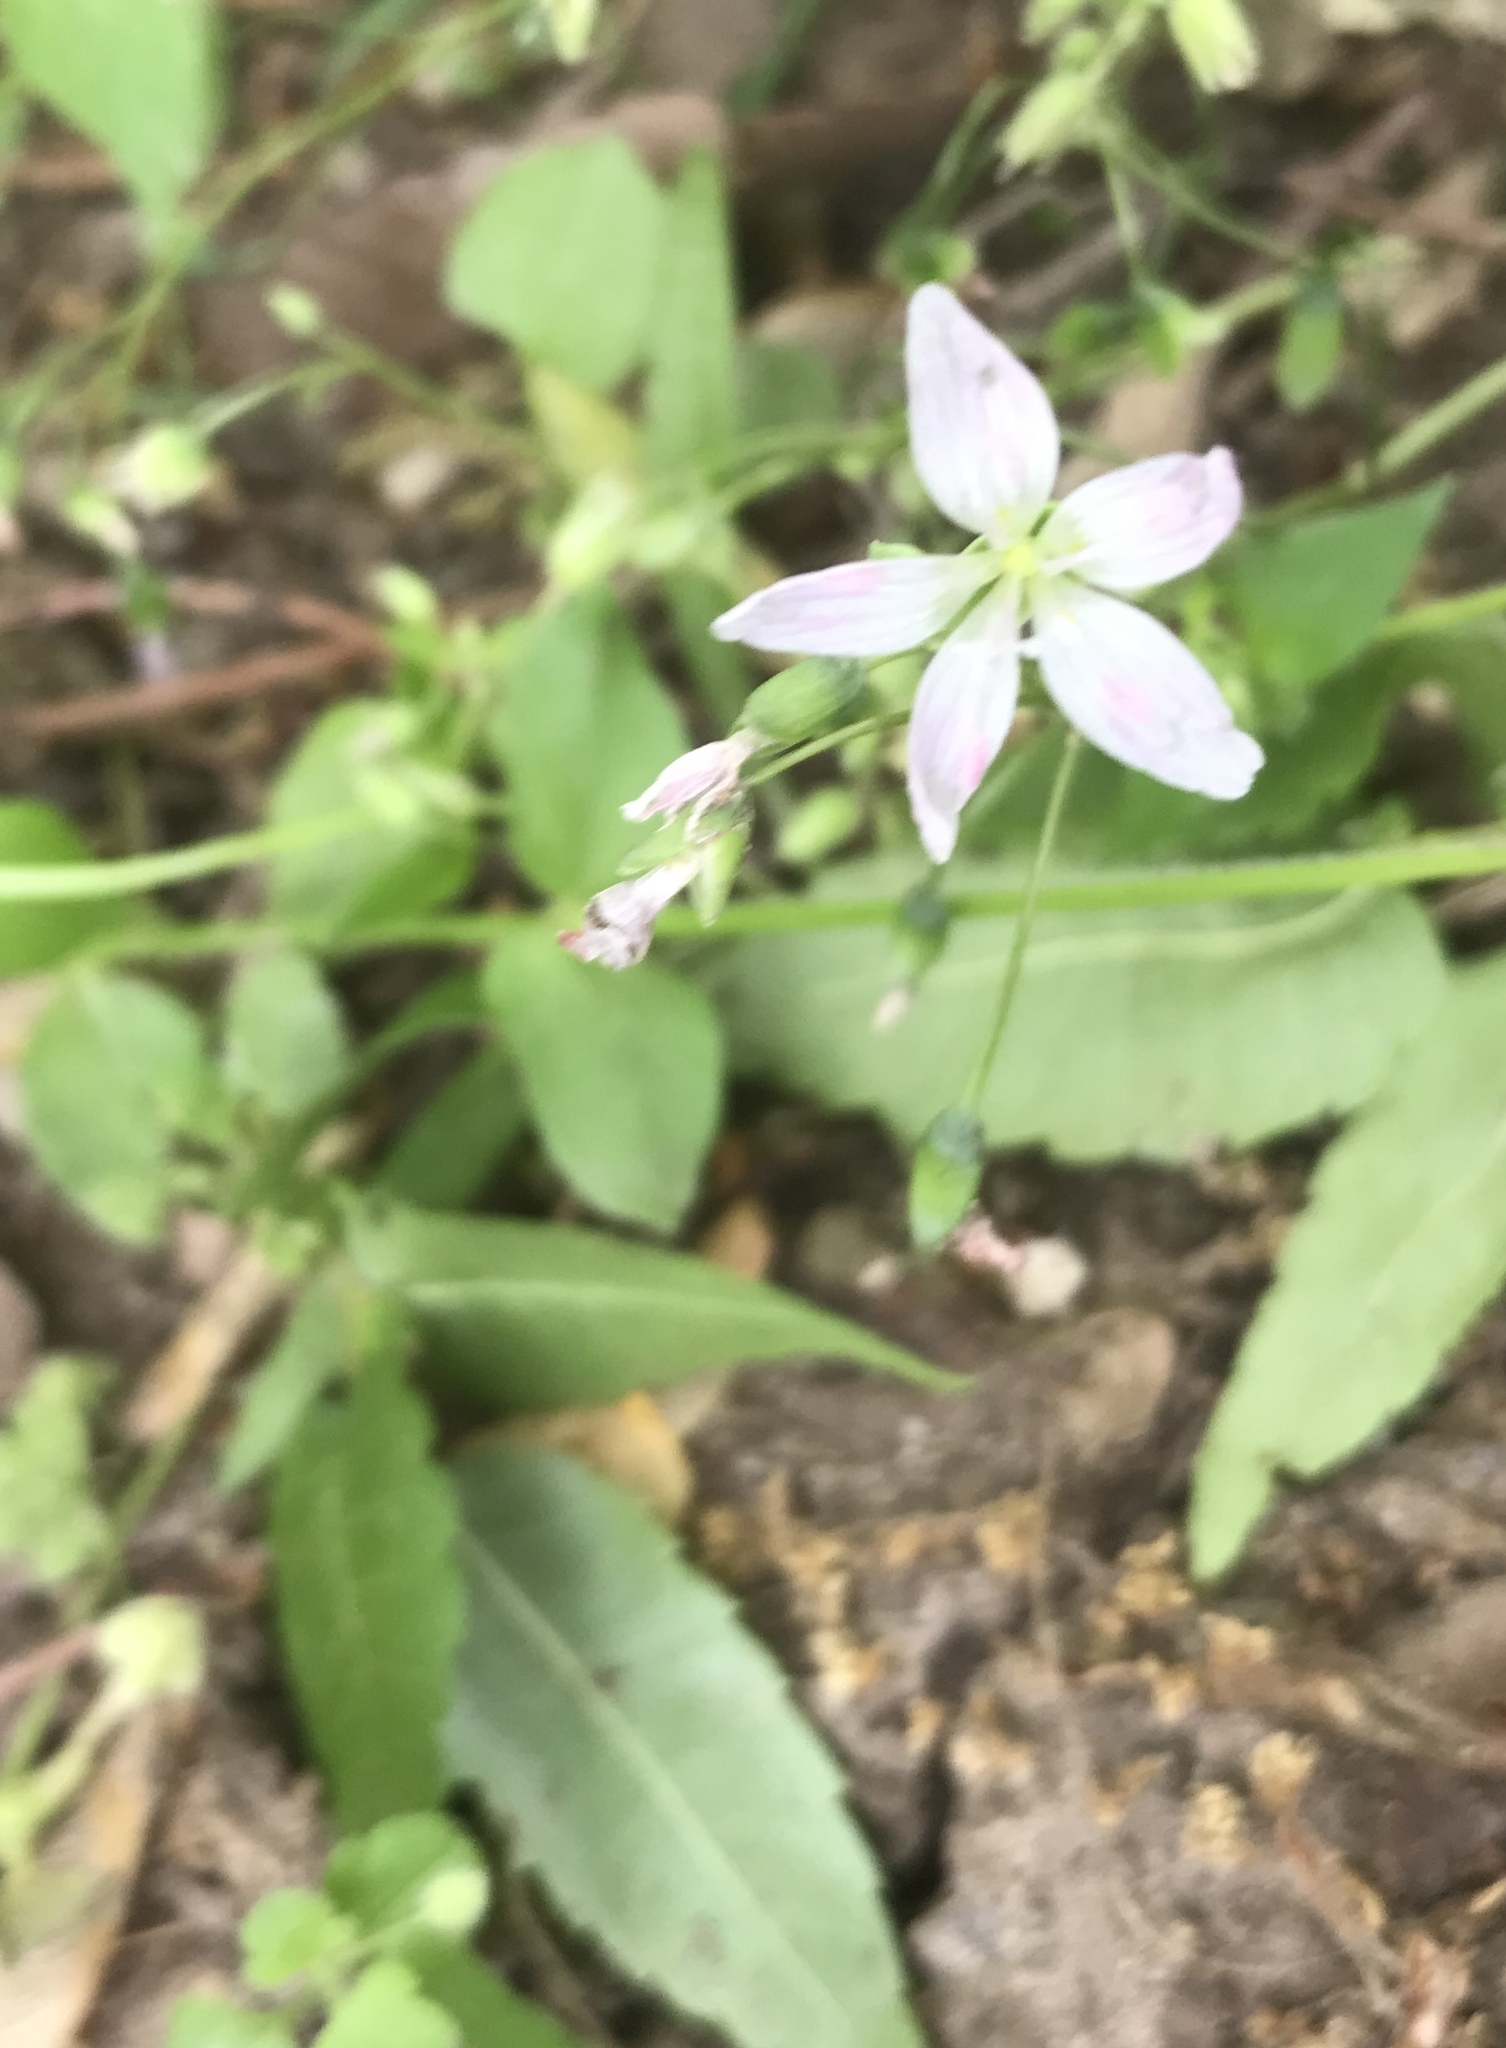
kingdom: Plantae
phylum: Tracheophyta
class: Magnoliopsida
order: Caryophyllales
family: Montiaceae
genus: Claytonia
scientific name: Claytonia virginica
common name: Virginia springbeauty
